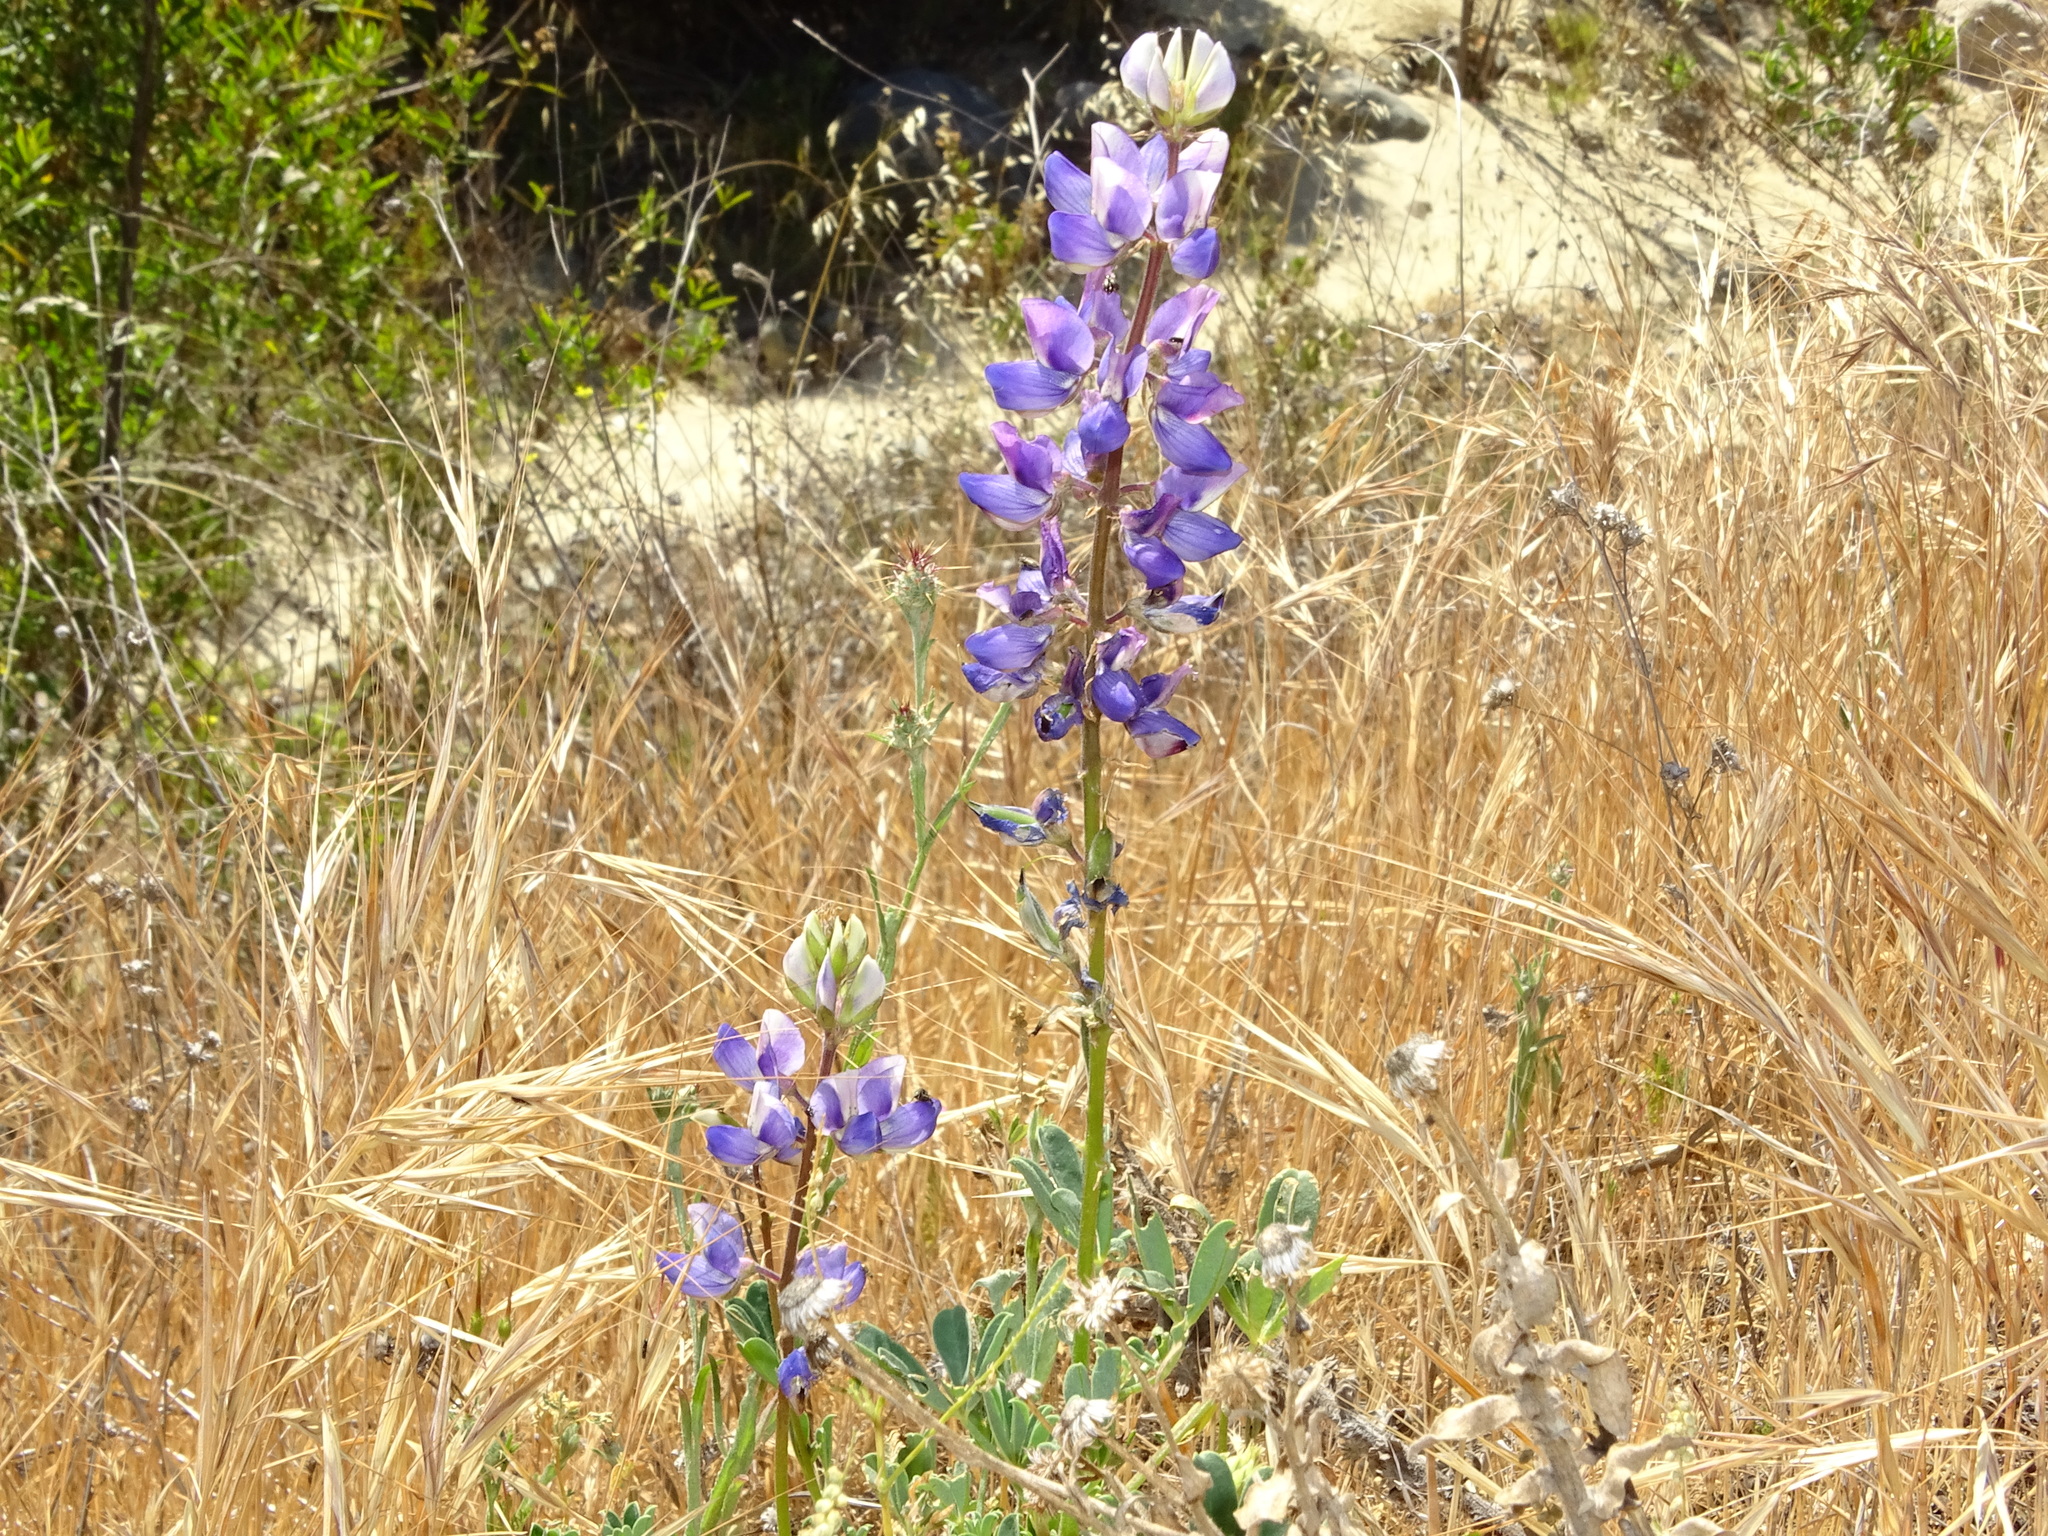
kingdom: Plantae
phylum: Tracheophyta
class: Magnoliopsida
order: Fabales
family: Fabaceae
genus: Lupinus
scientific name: Lupinus succulentus
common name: Arroyo lupine
